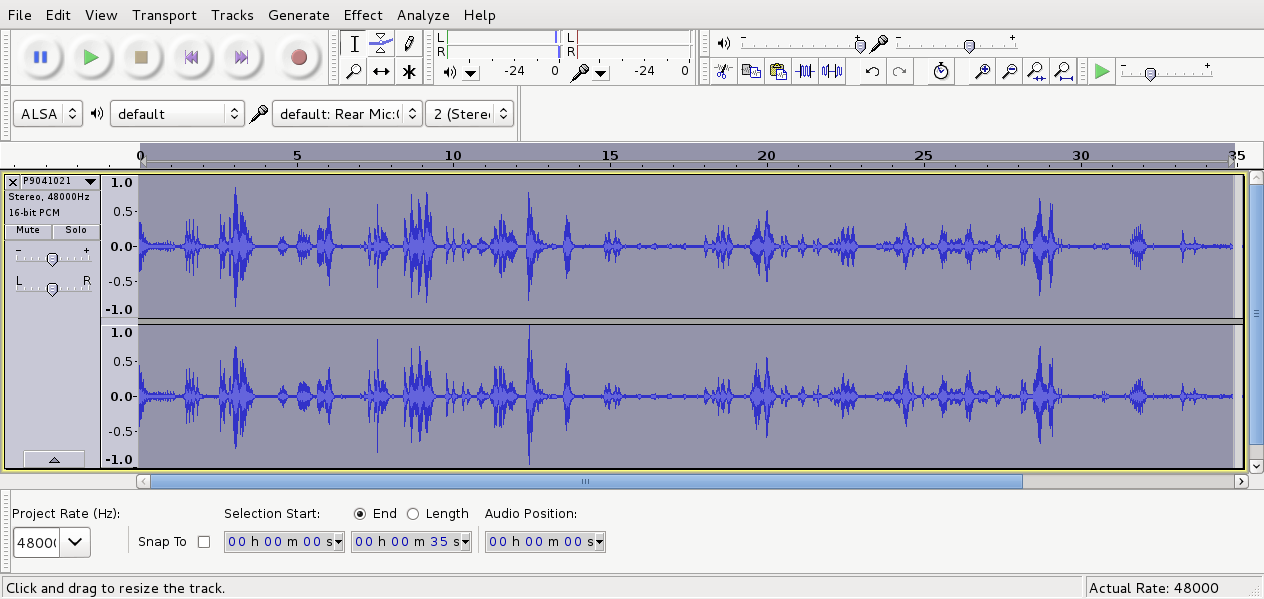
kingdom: Animalia
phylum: Chordata
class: Aves
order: Passeriformes
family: Turdidae
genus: Turdus
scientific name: Turdus philomelos
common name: Song thrush
